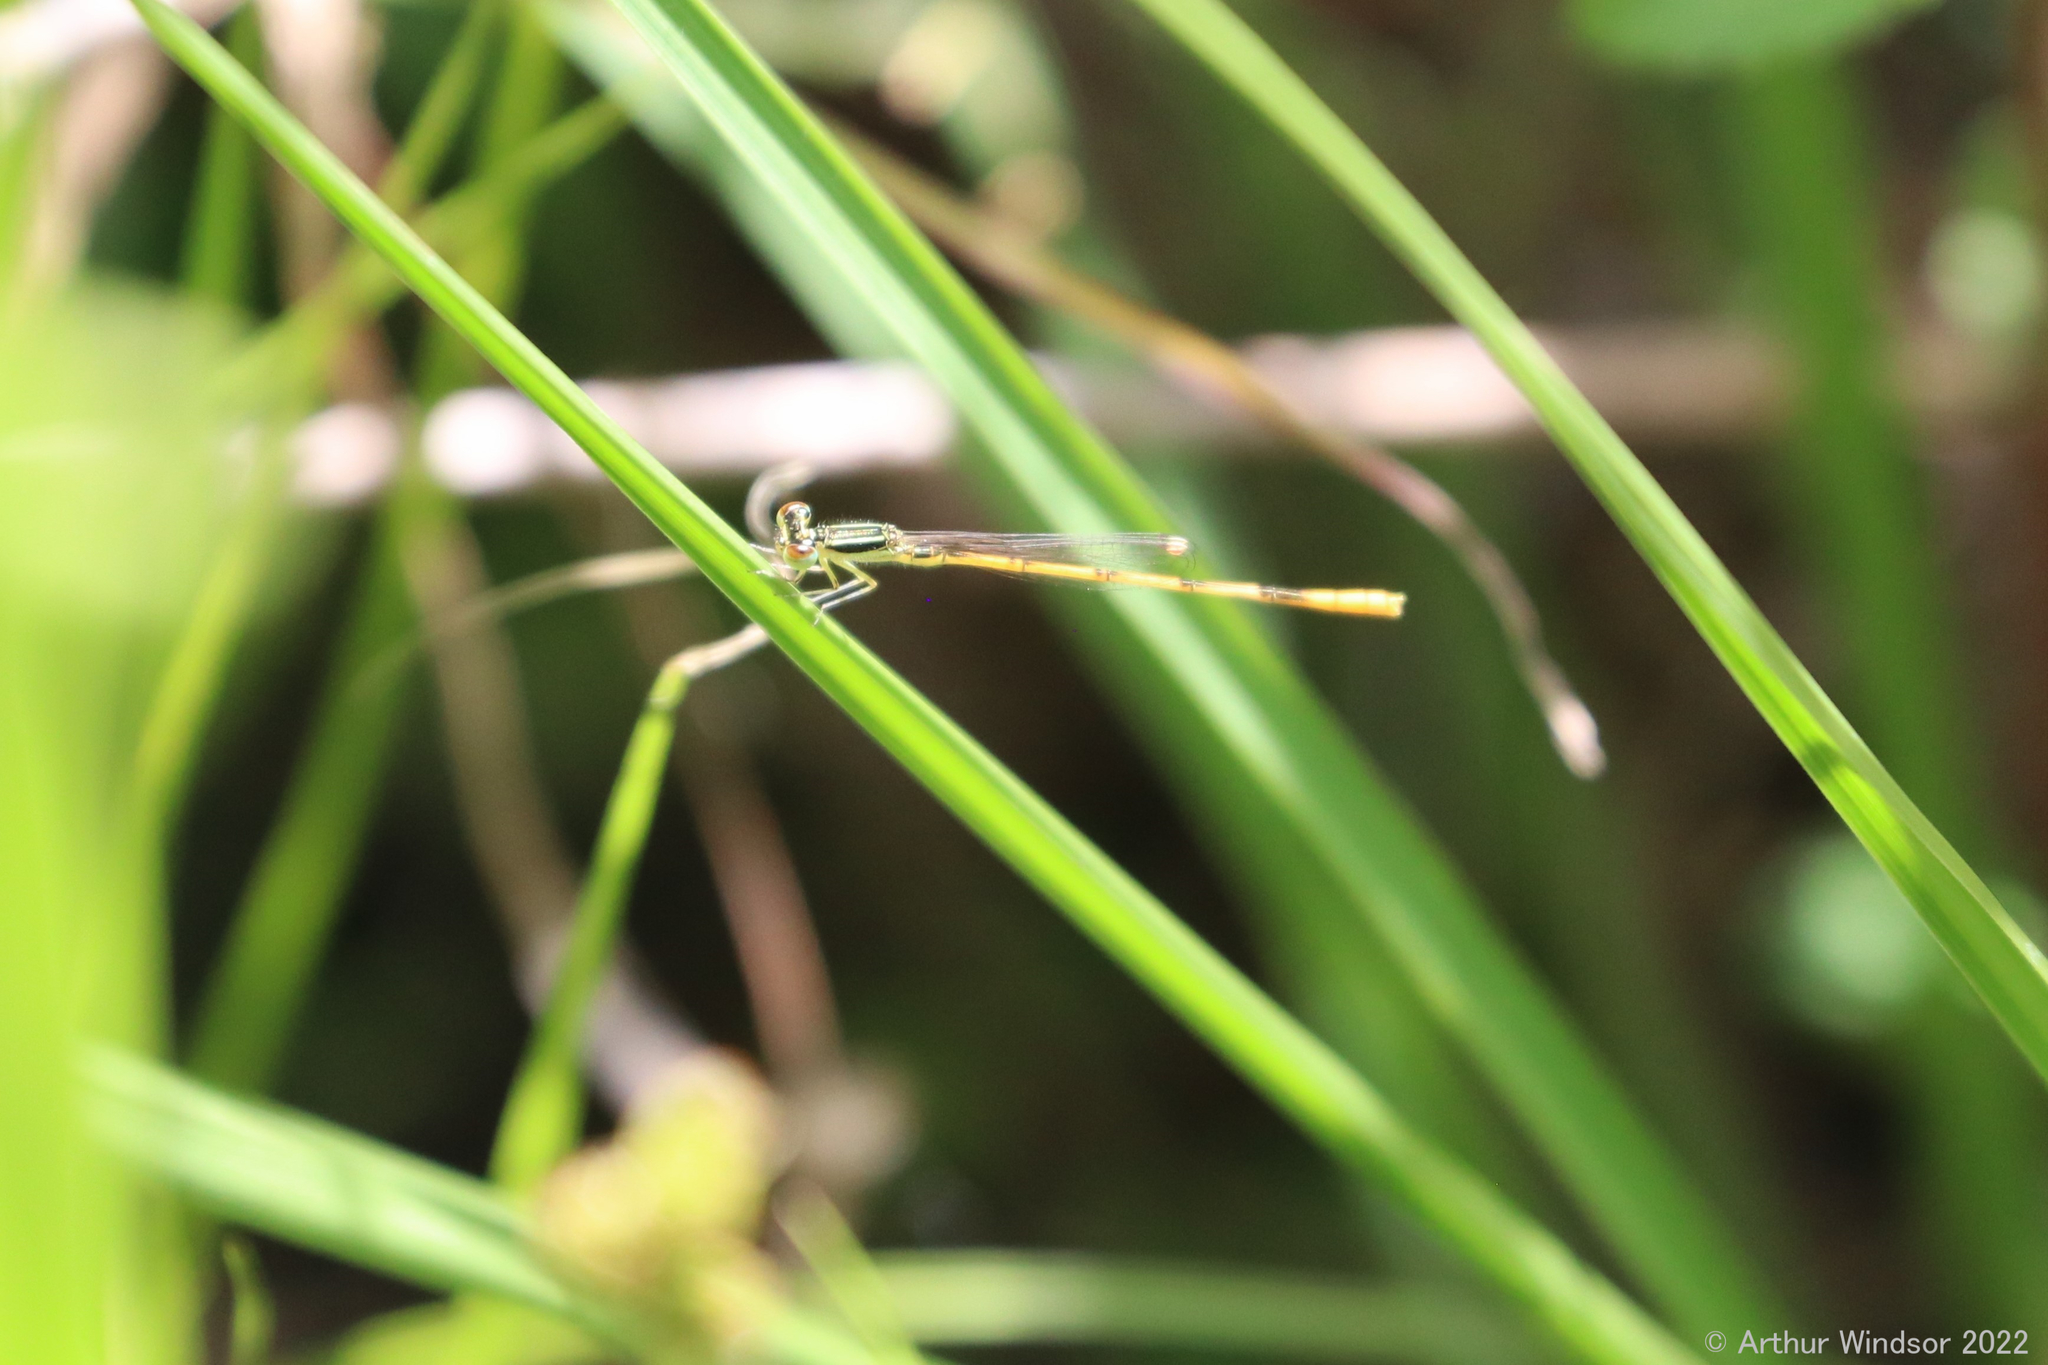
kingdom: Animalia
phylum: Arthropoda
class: Insecta
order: Odonata
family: Coenagrionidae
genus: Ischnura
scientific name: Ischnura hastata
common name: Citrine forktail
